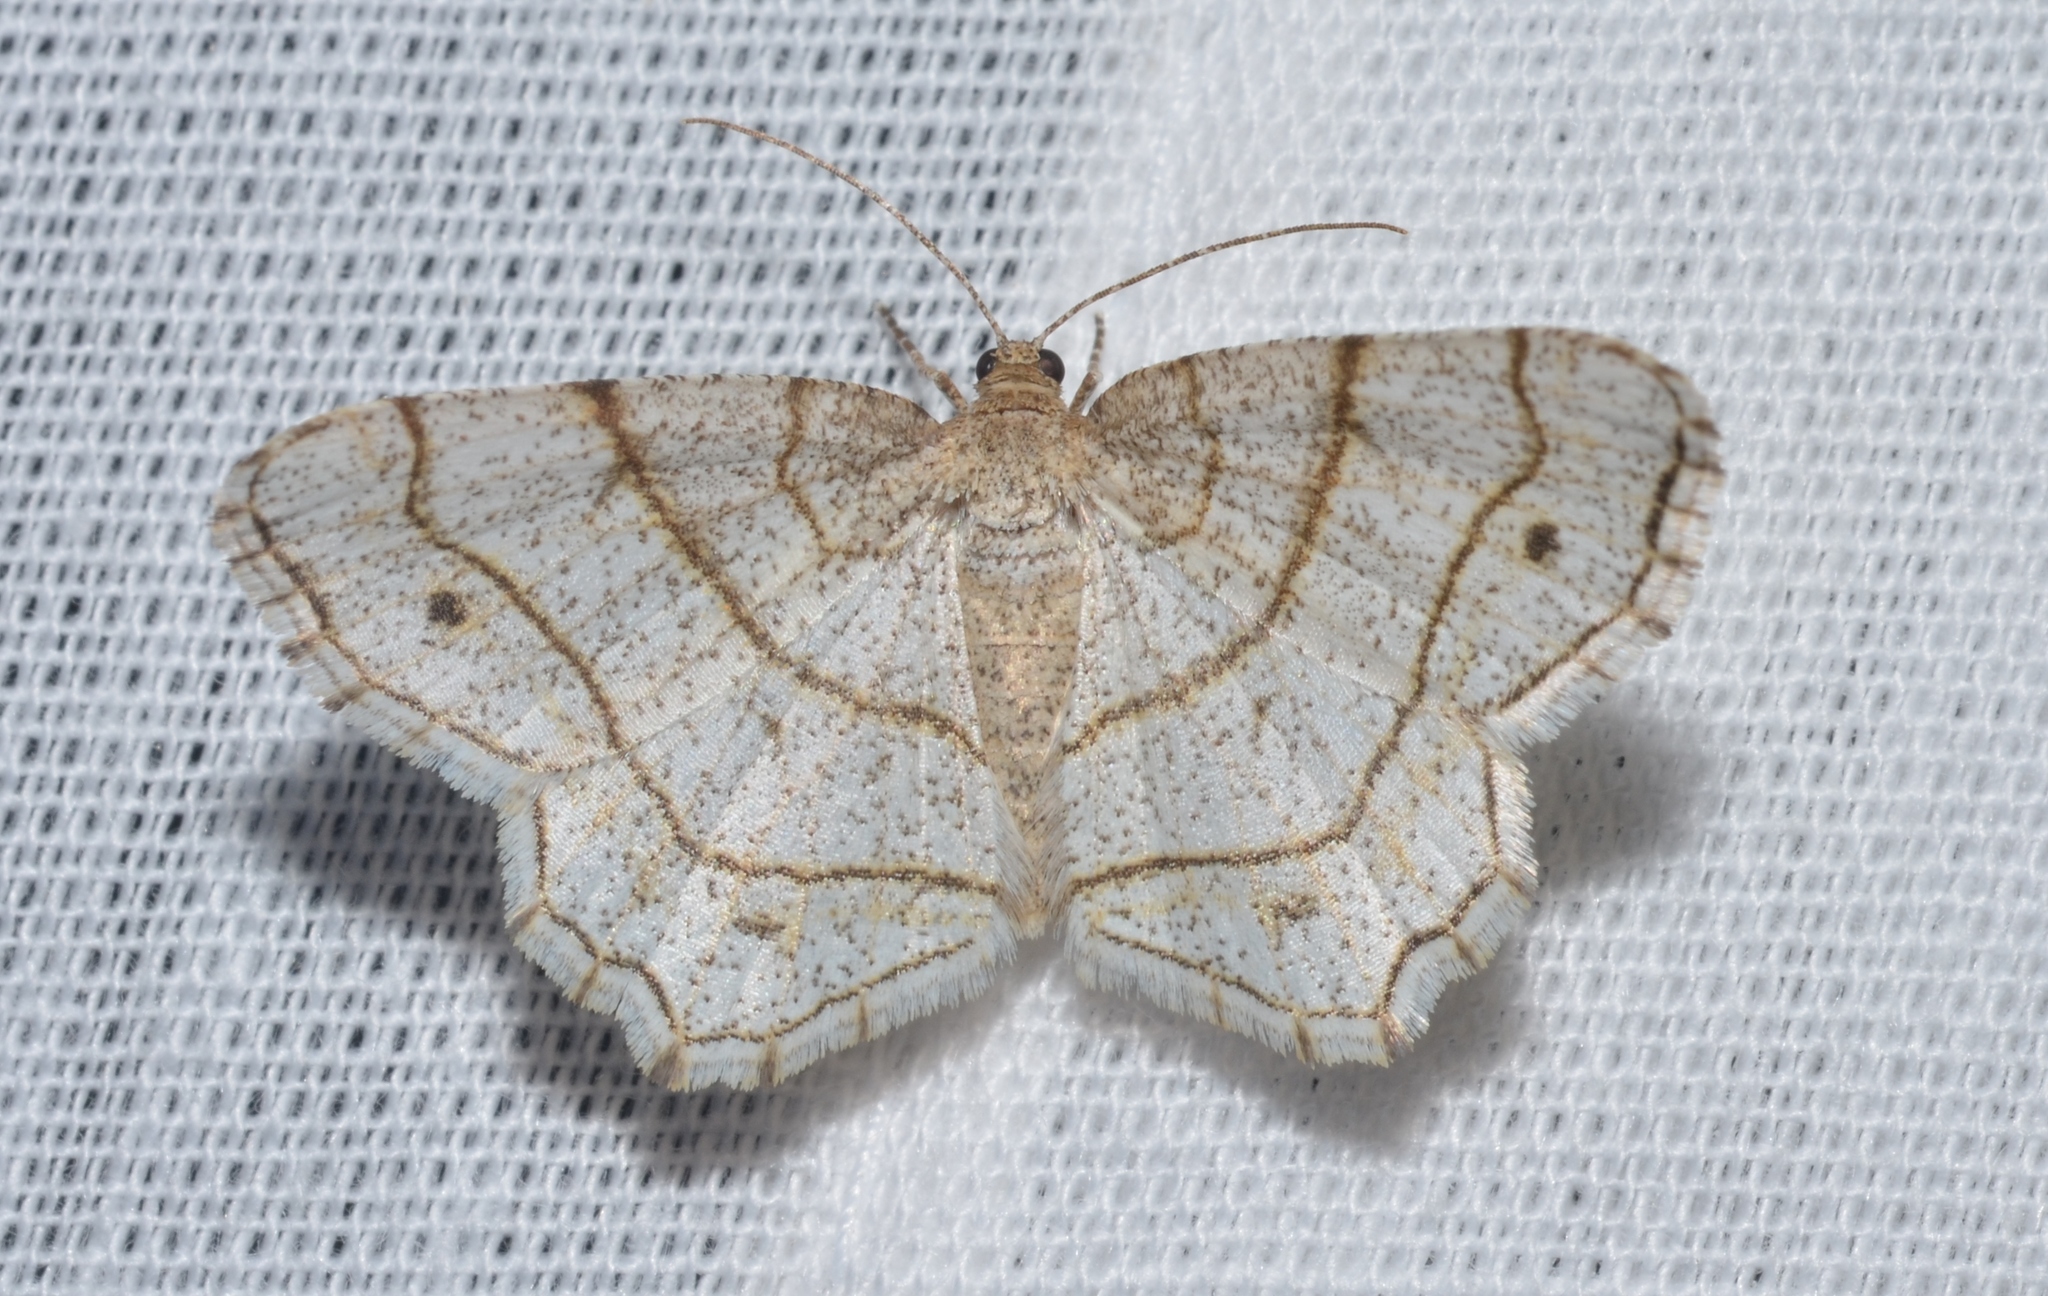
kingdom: Animalia
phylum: Arthropoda
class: Insecta
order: Lepidoptera
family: Geometridae
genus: Trigrammia
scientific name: Trigrammia quadrinotaria
